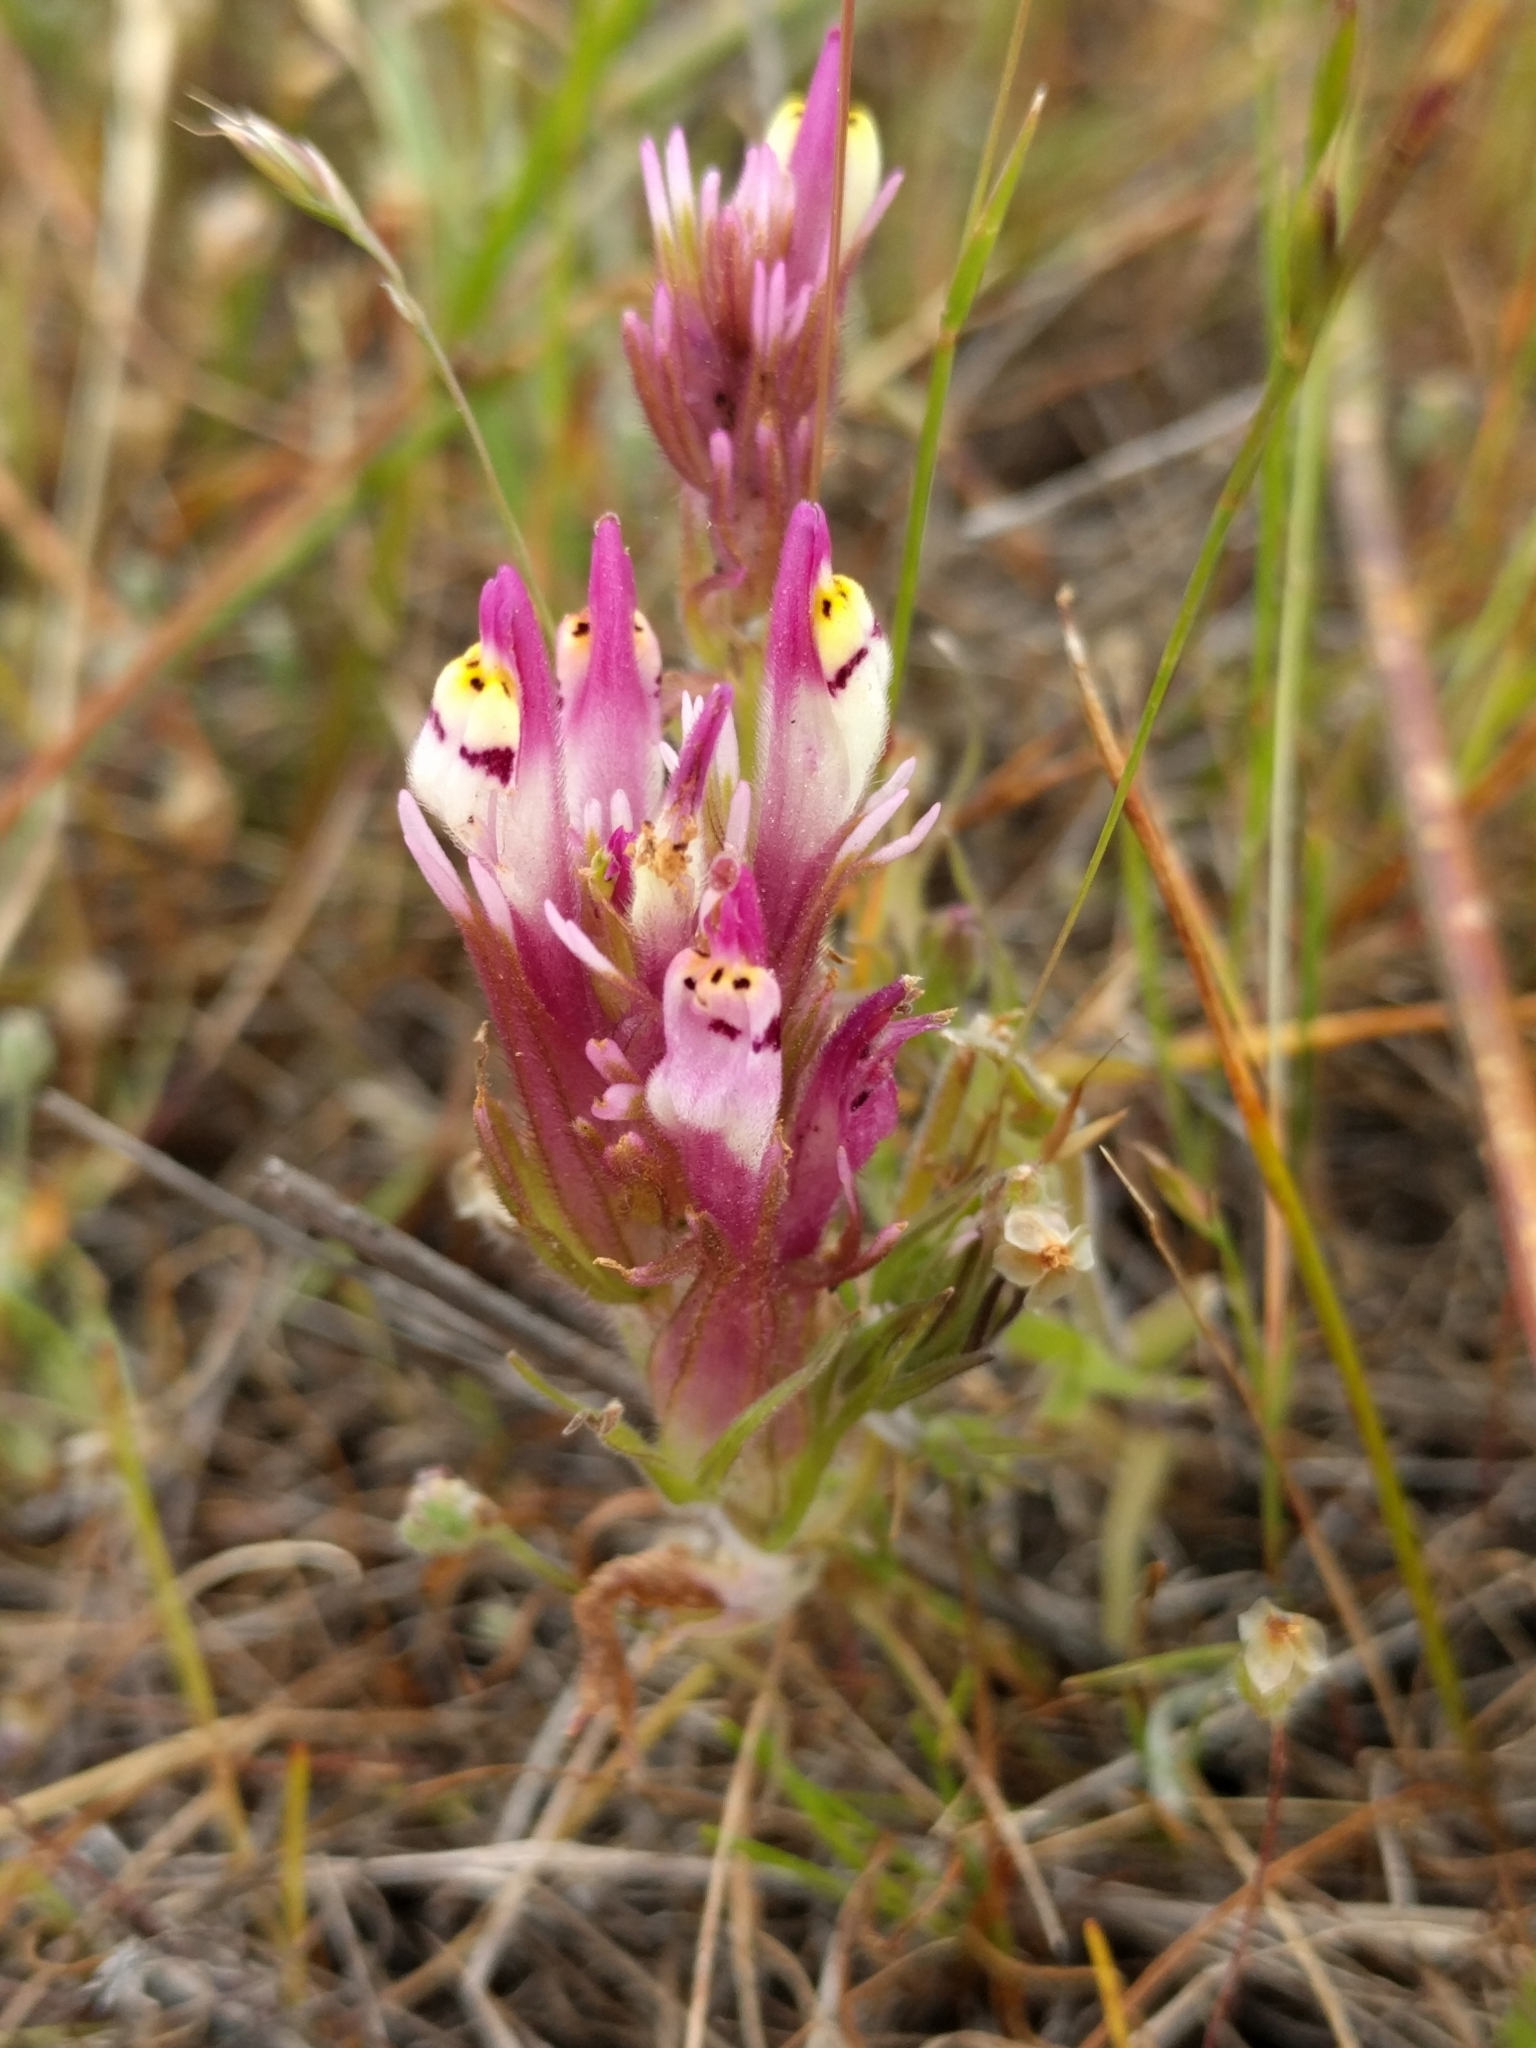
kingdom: Plantae
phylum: Tracheophyta
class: Magnoliopsida
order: Lamiales
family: Orobanchaceae
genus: Castilleja
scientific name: Castilleja densiflora
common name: Dense-flower indian paintbrush
